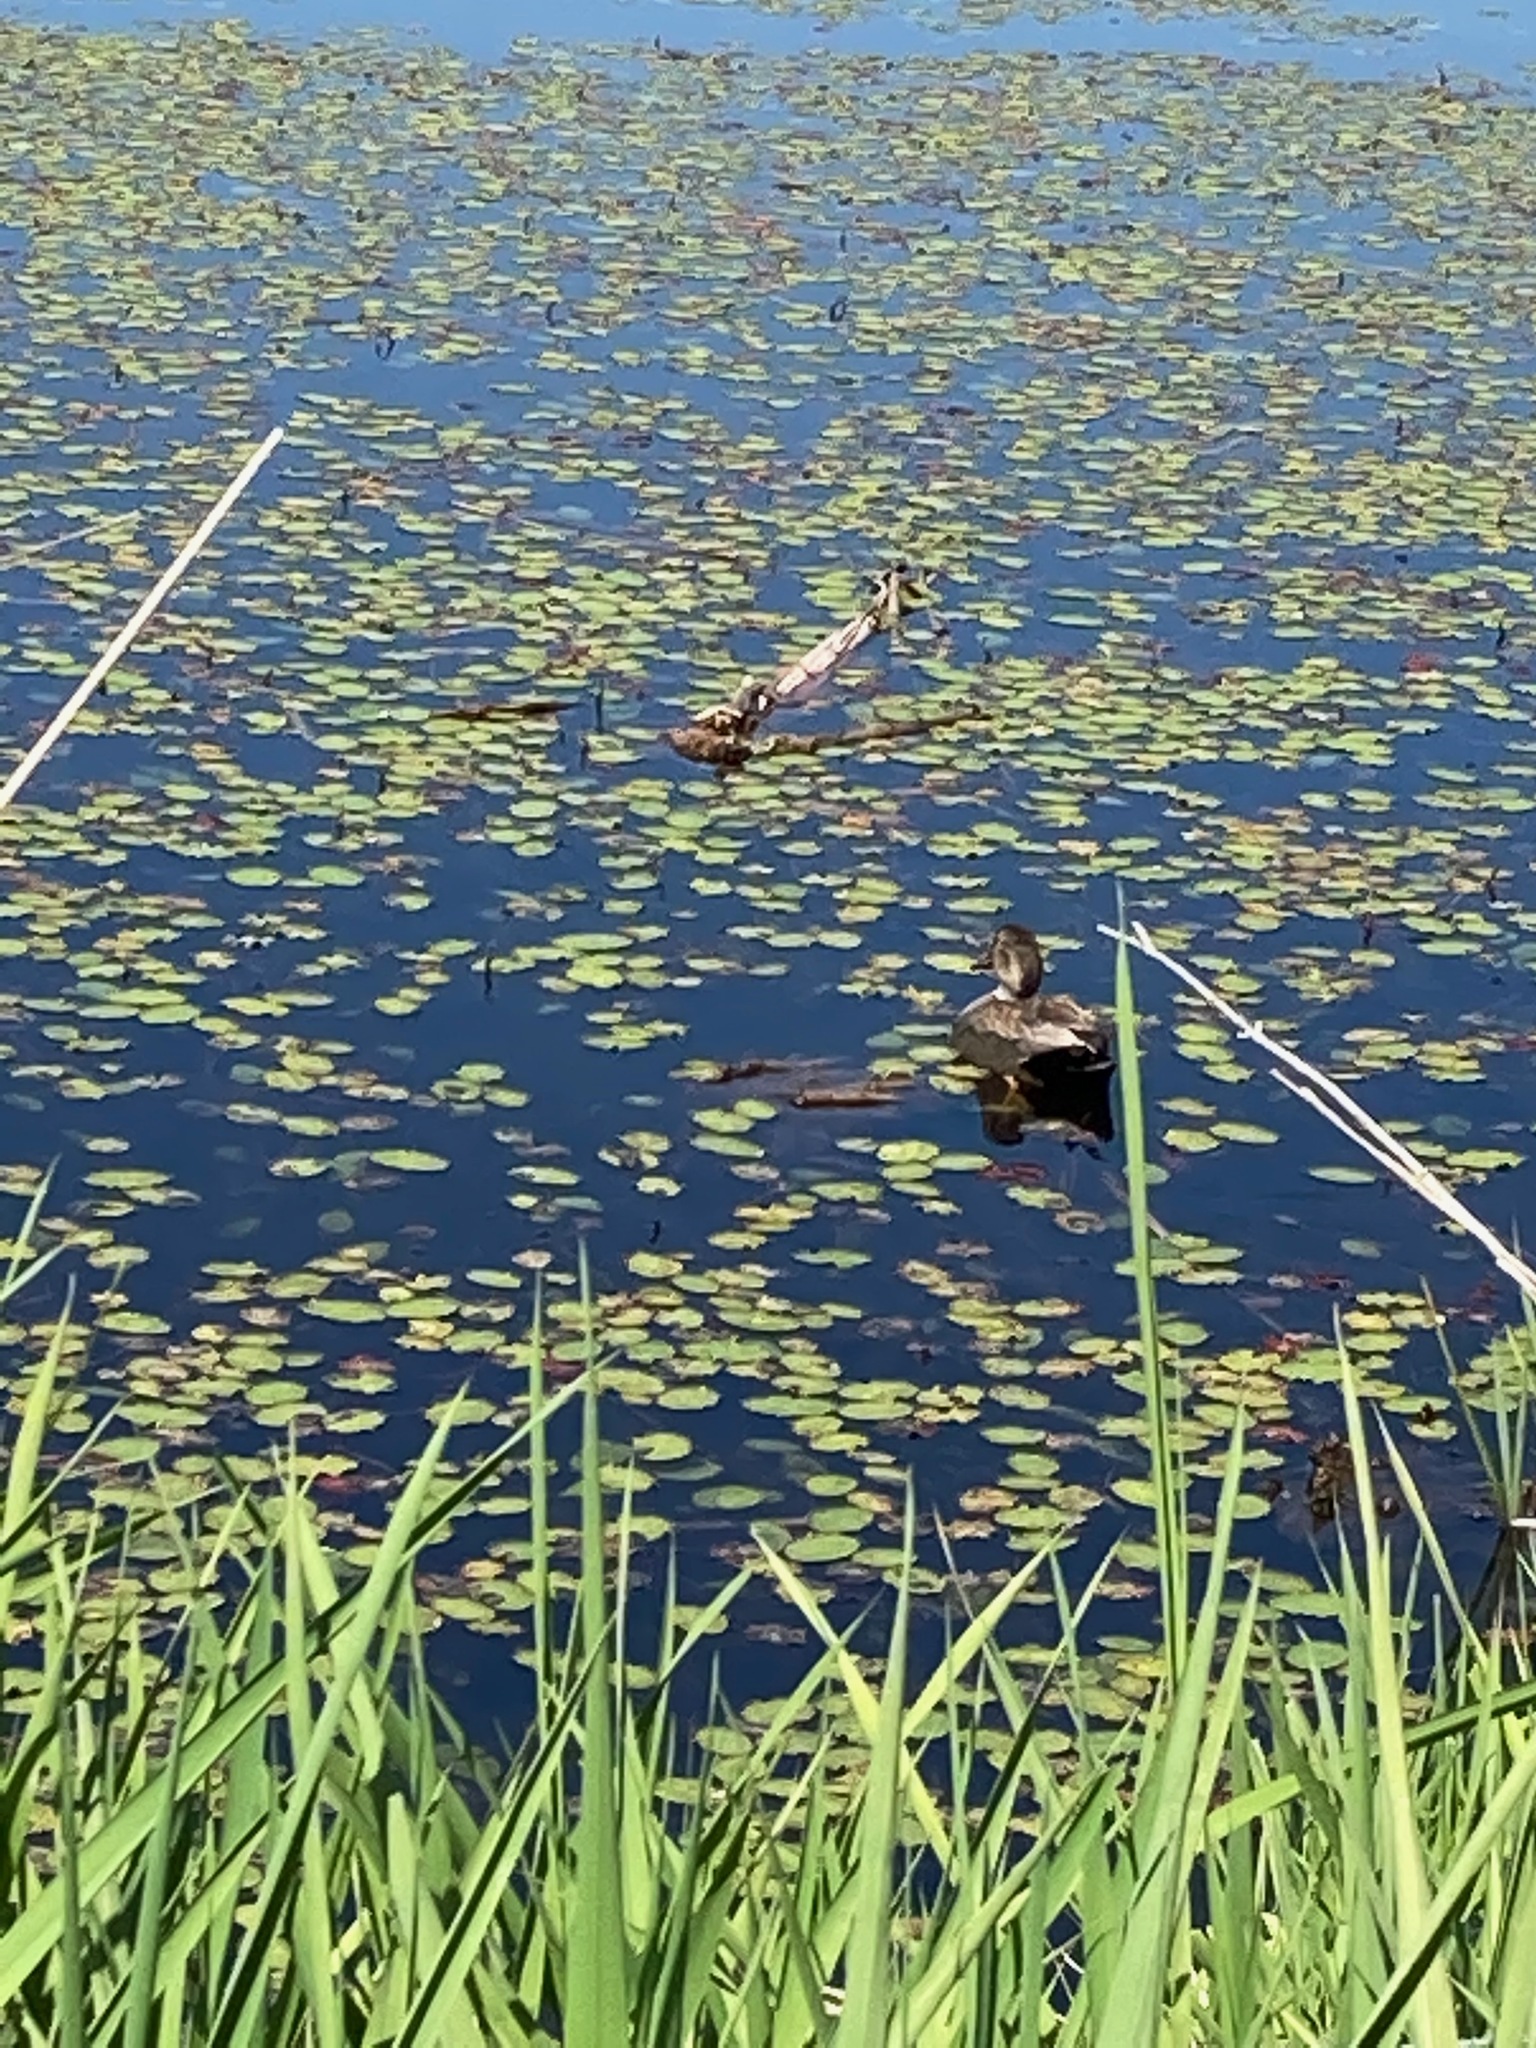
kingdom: Animalia
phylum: Chordata
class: Aves
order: Anseriformes
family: Anatidae
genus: Mareca
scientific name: Mareca strepera
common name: Gadwall
